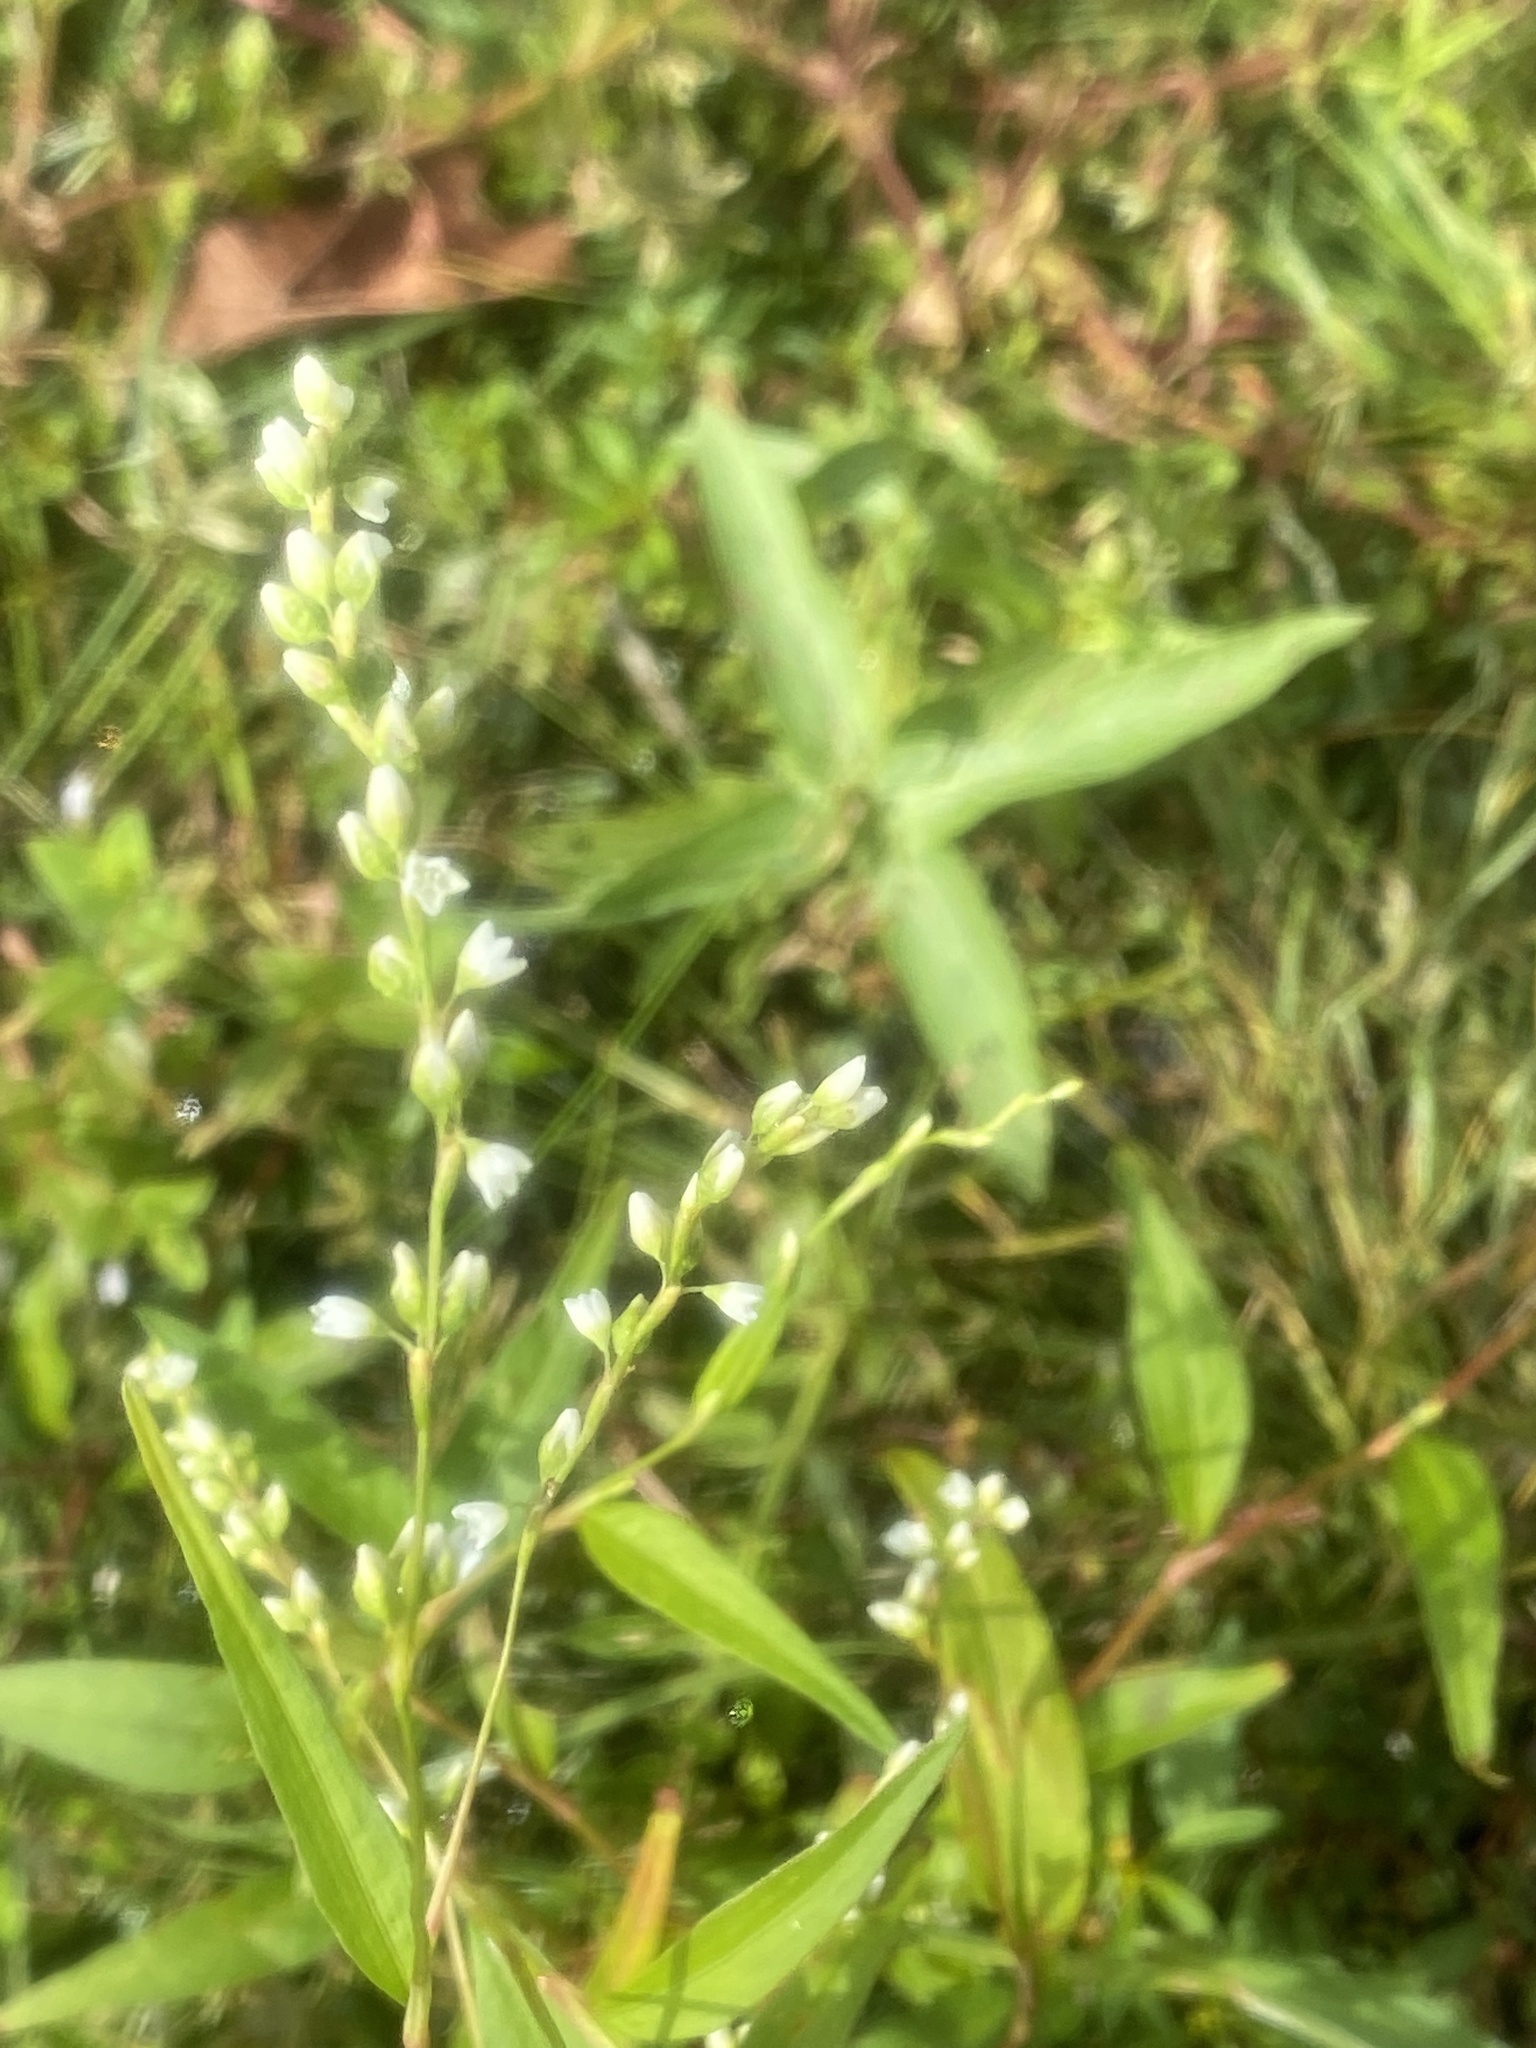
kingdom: Plantae
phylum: Tracheophyta
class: Magnoliopsida
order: Caryophyllales
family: Polygonaceae
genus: Persicaria
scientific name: Persicaria punctata
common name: Dotted smartweed
